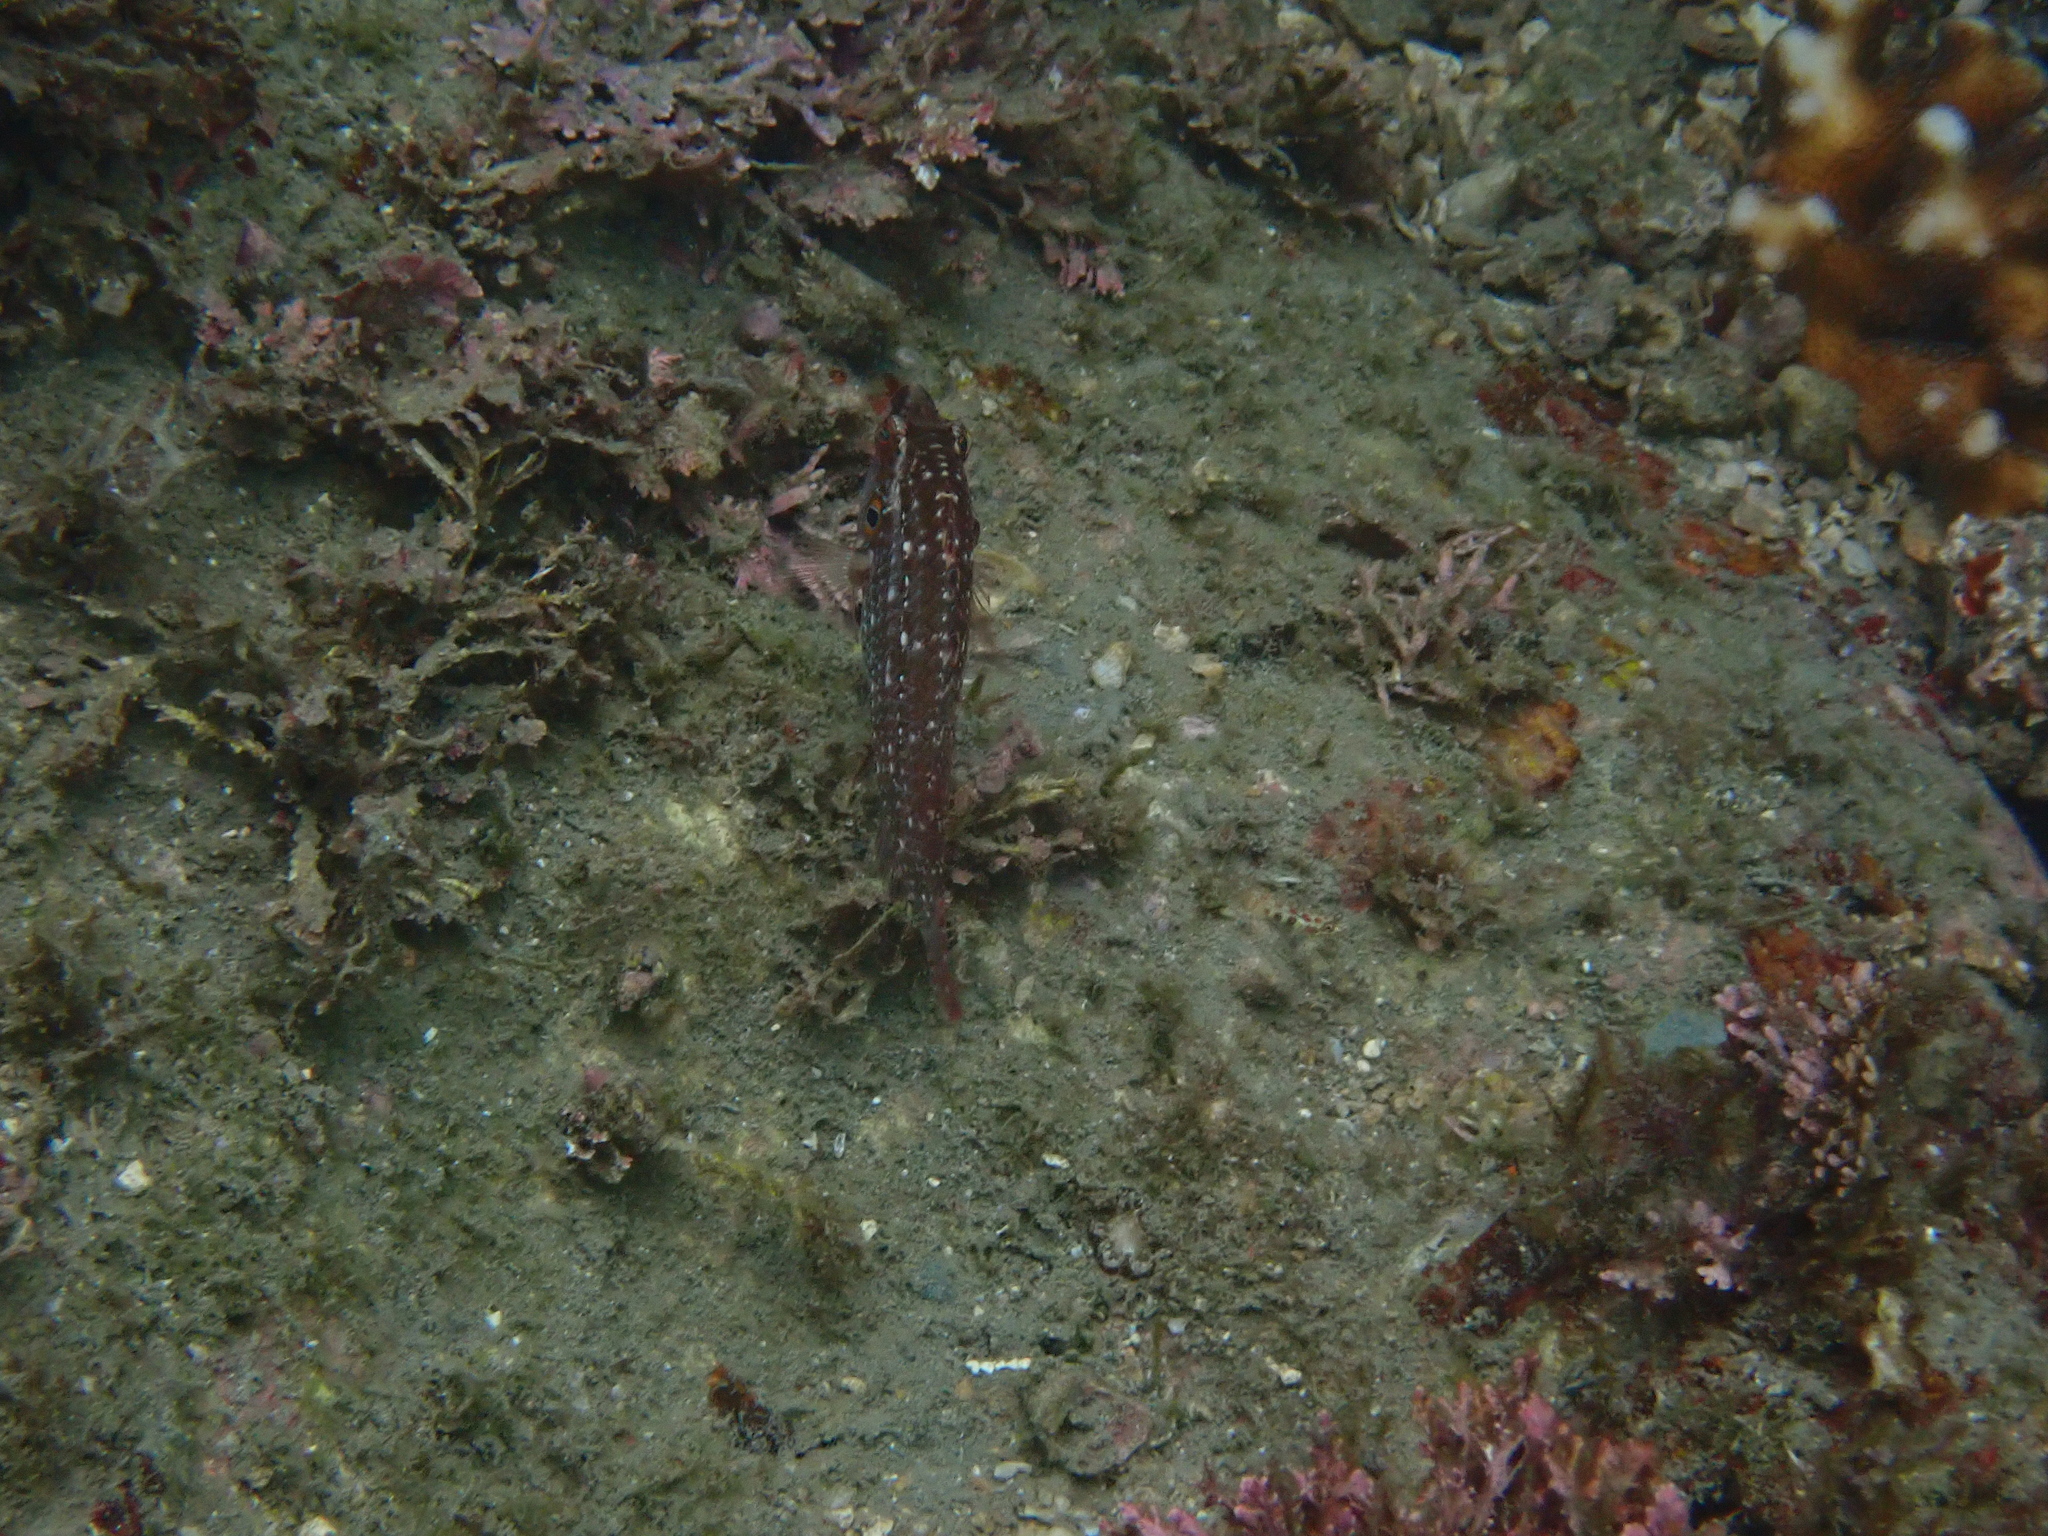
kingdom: Animalia
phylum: Chordata
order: Perciformes
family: Labridae
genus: Pteragogus
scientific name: Pteragogus enneacanthus
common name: Cockerel wrasse
